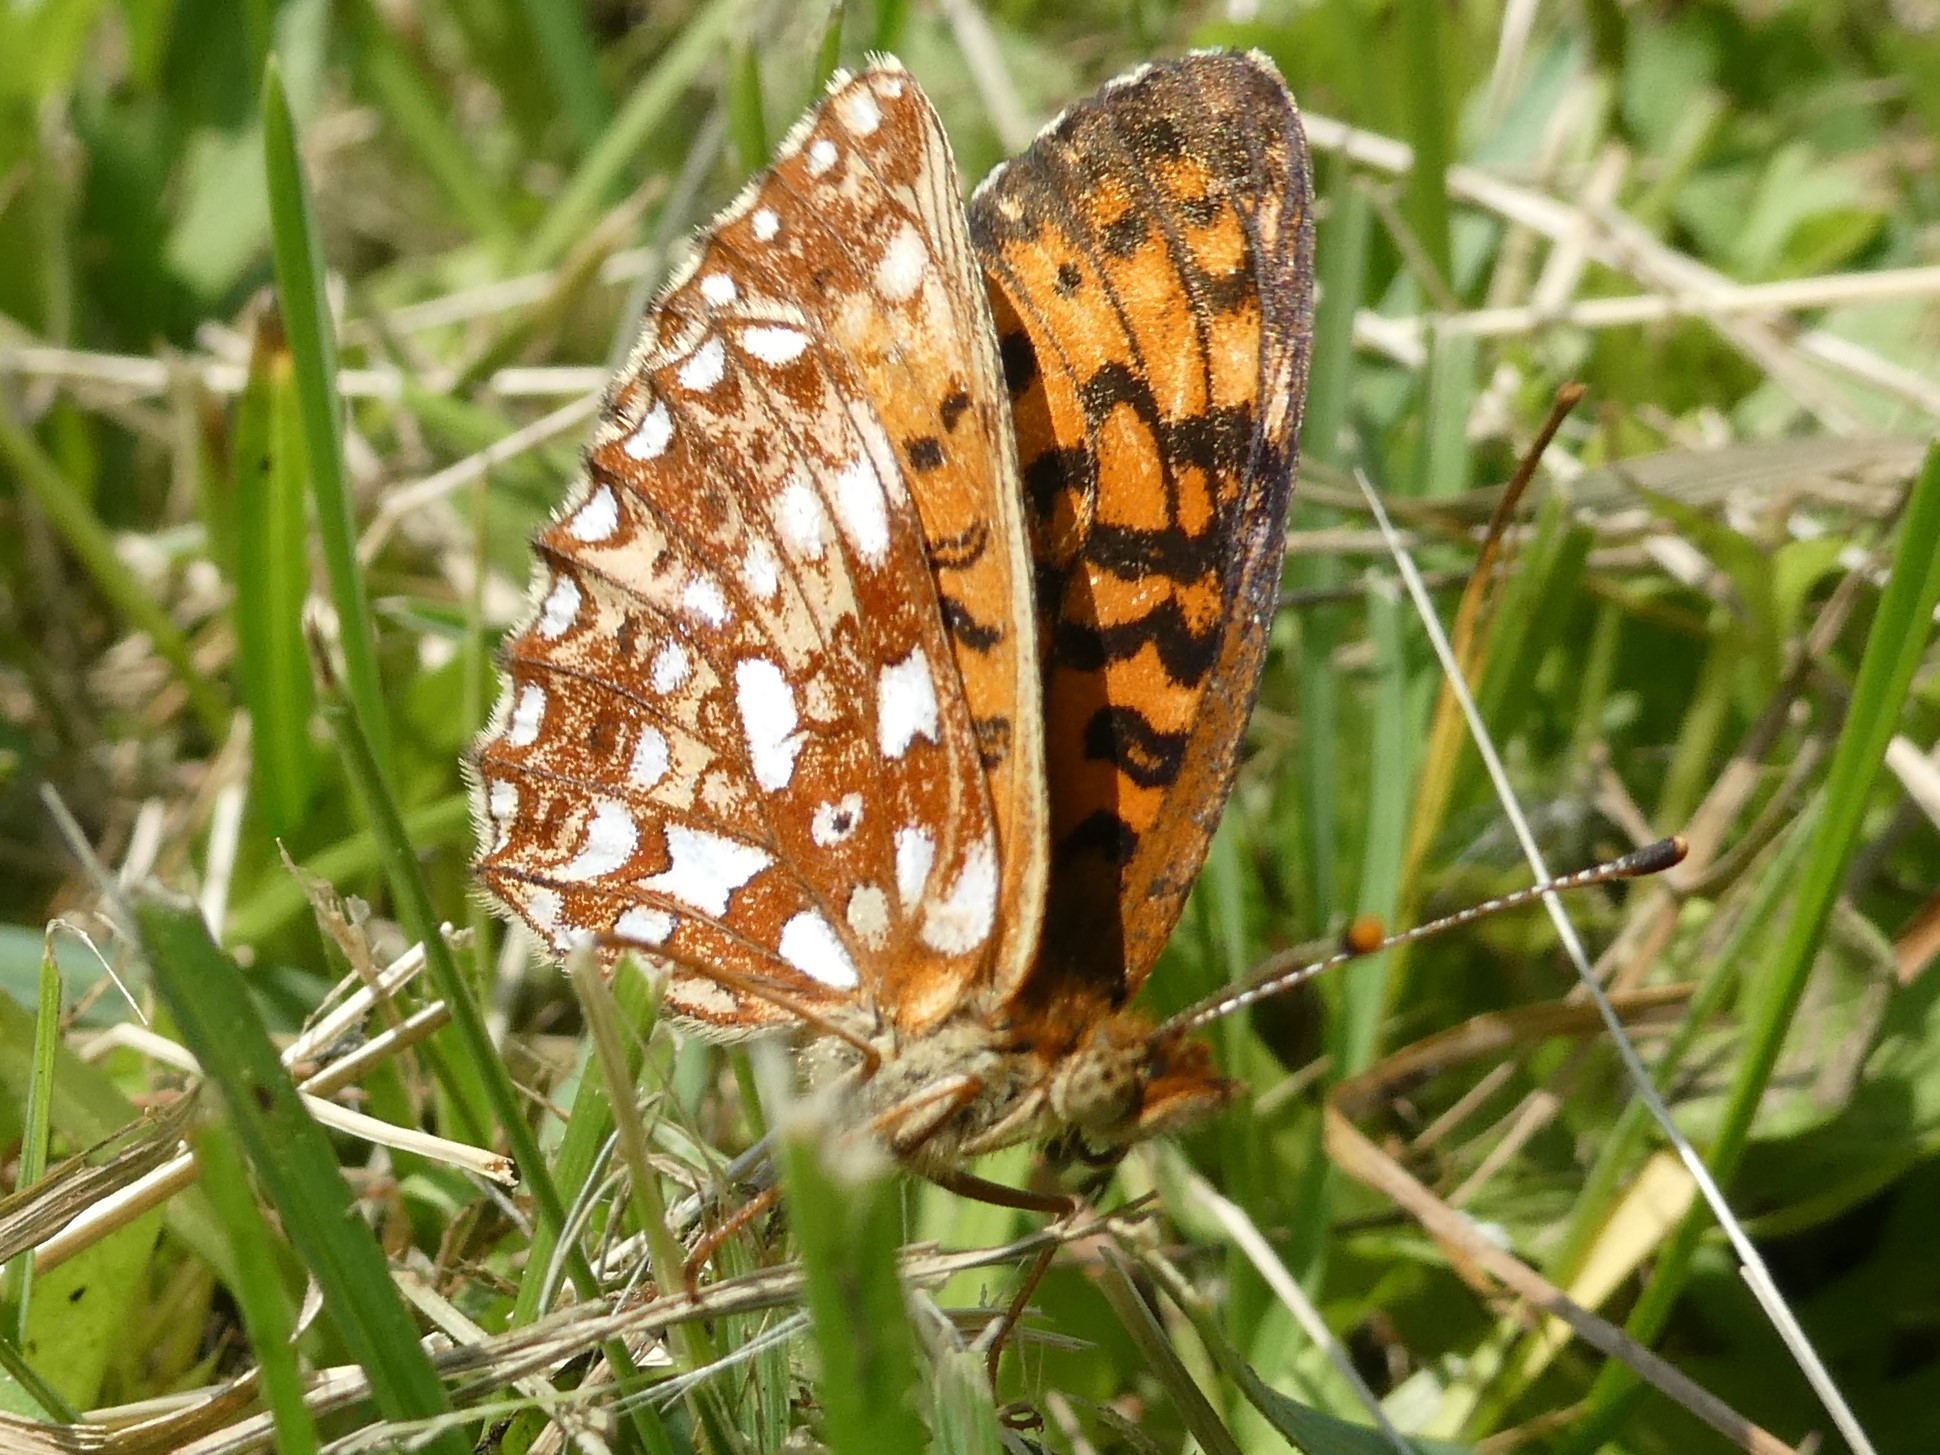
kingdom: Animalia
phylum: Arthropoda
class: Insecta
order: Lepidoptera
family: Nymphalidae
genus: Boloria
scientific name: Boloria
